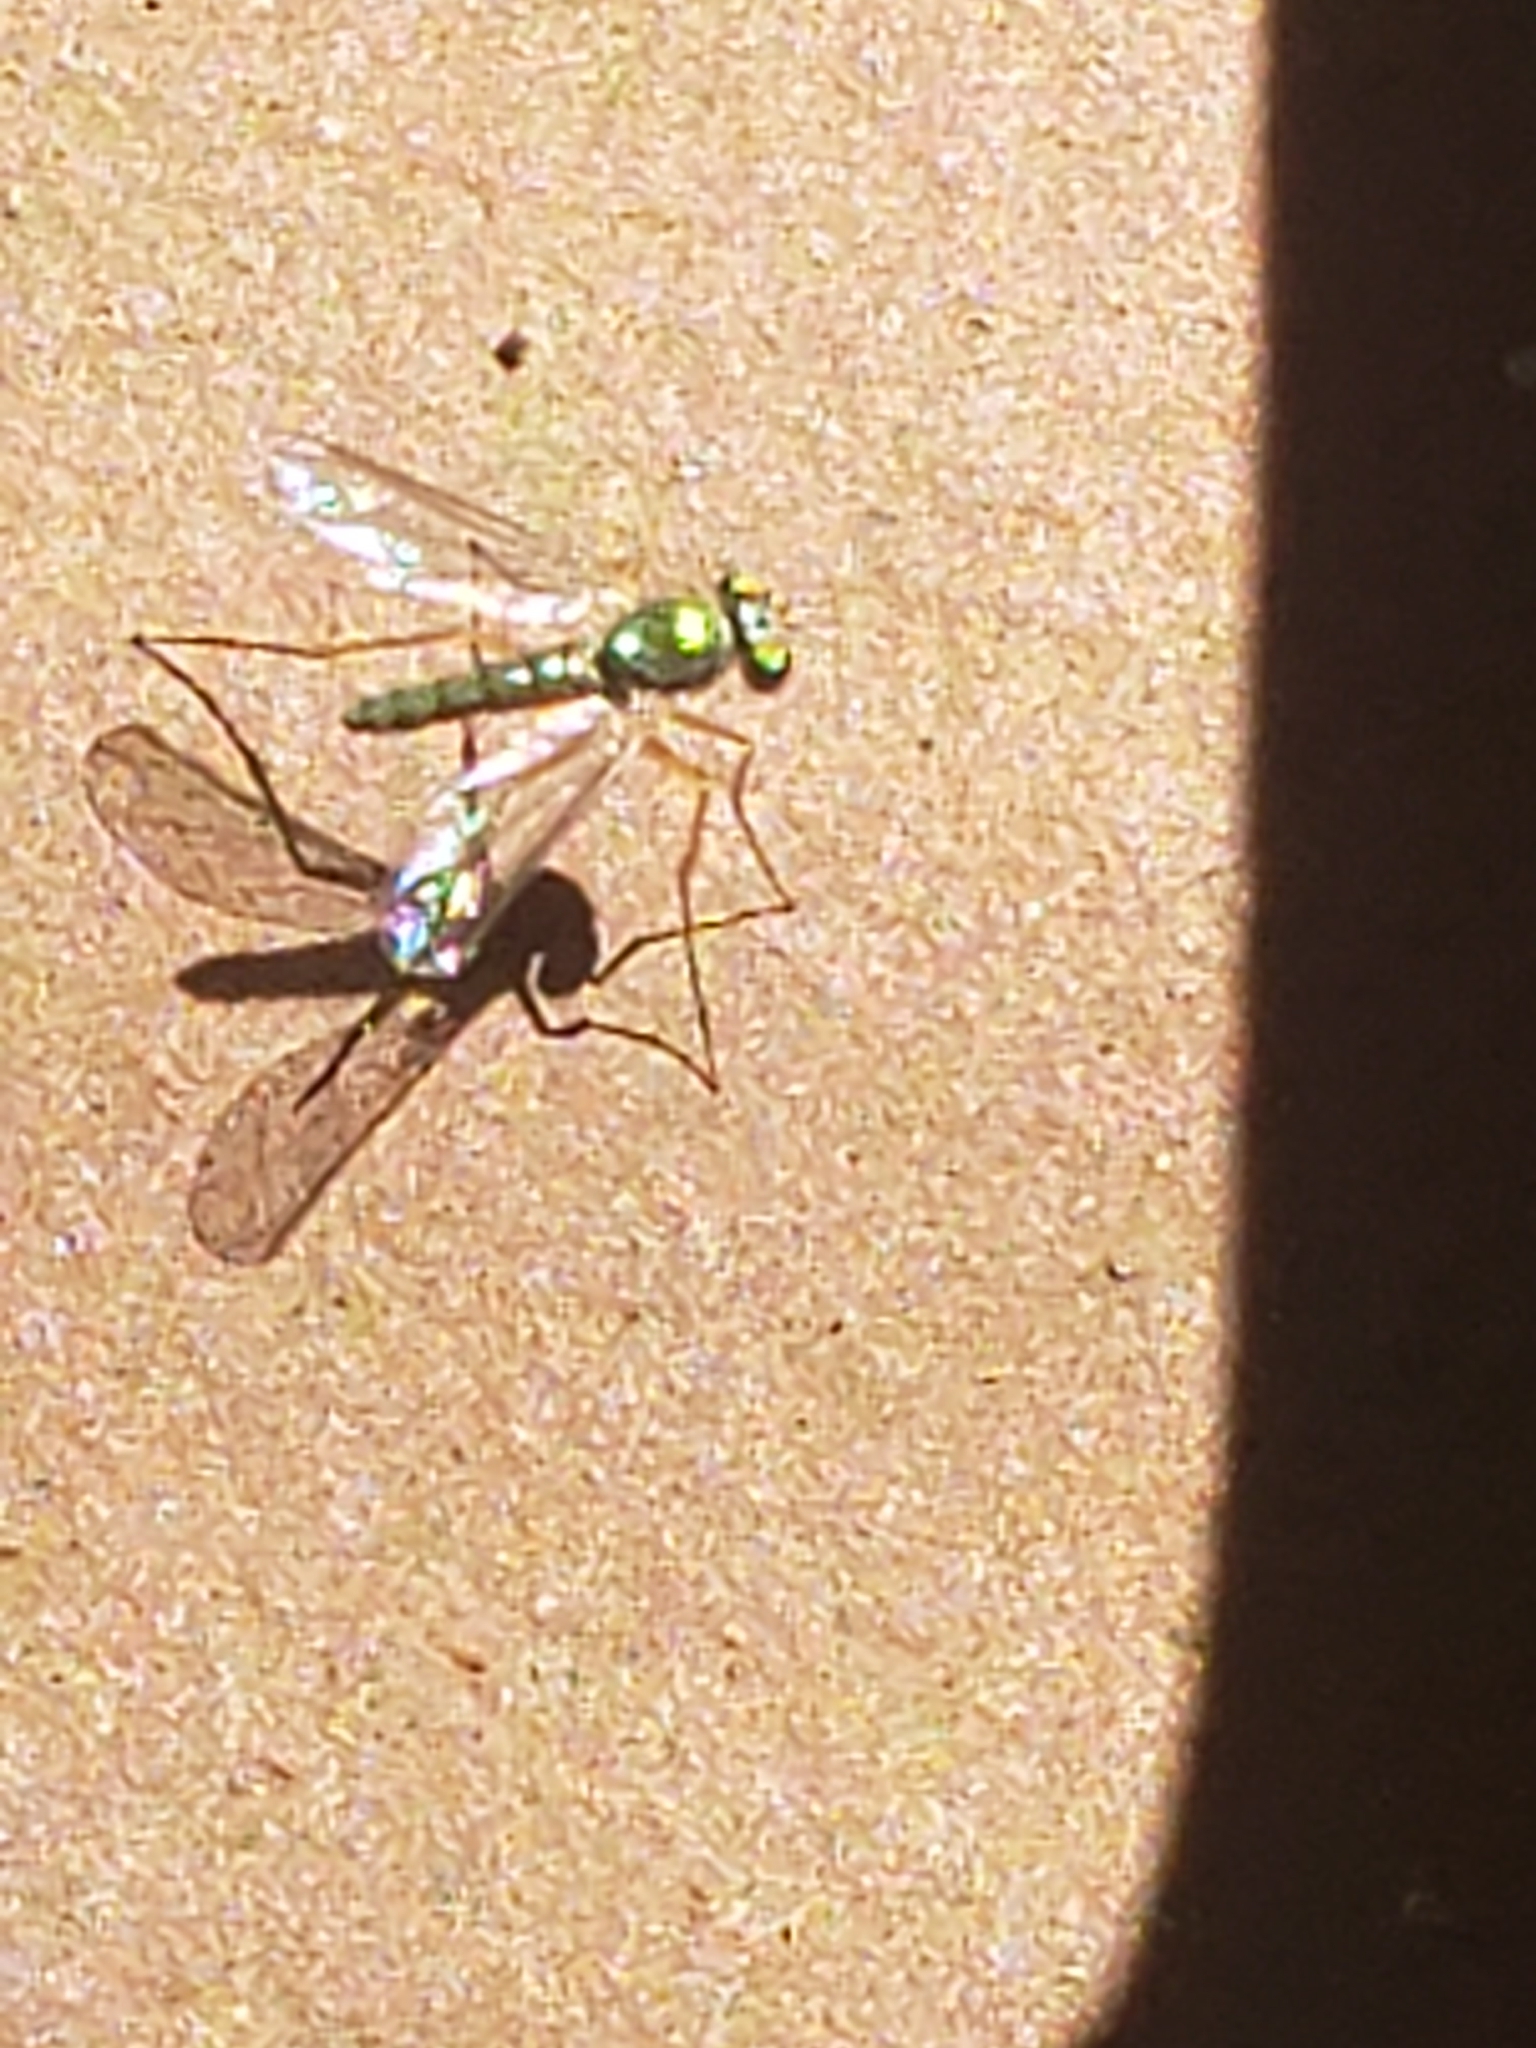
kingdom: Animalia
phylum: Arthropoda
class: Insecta
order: Diptera
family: Dolichopodidae
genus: Amblypsilopus
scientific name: Amblypsilopus bradleii
